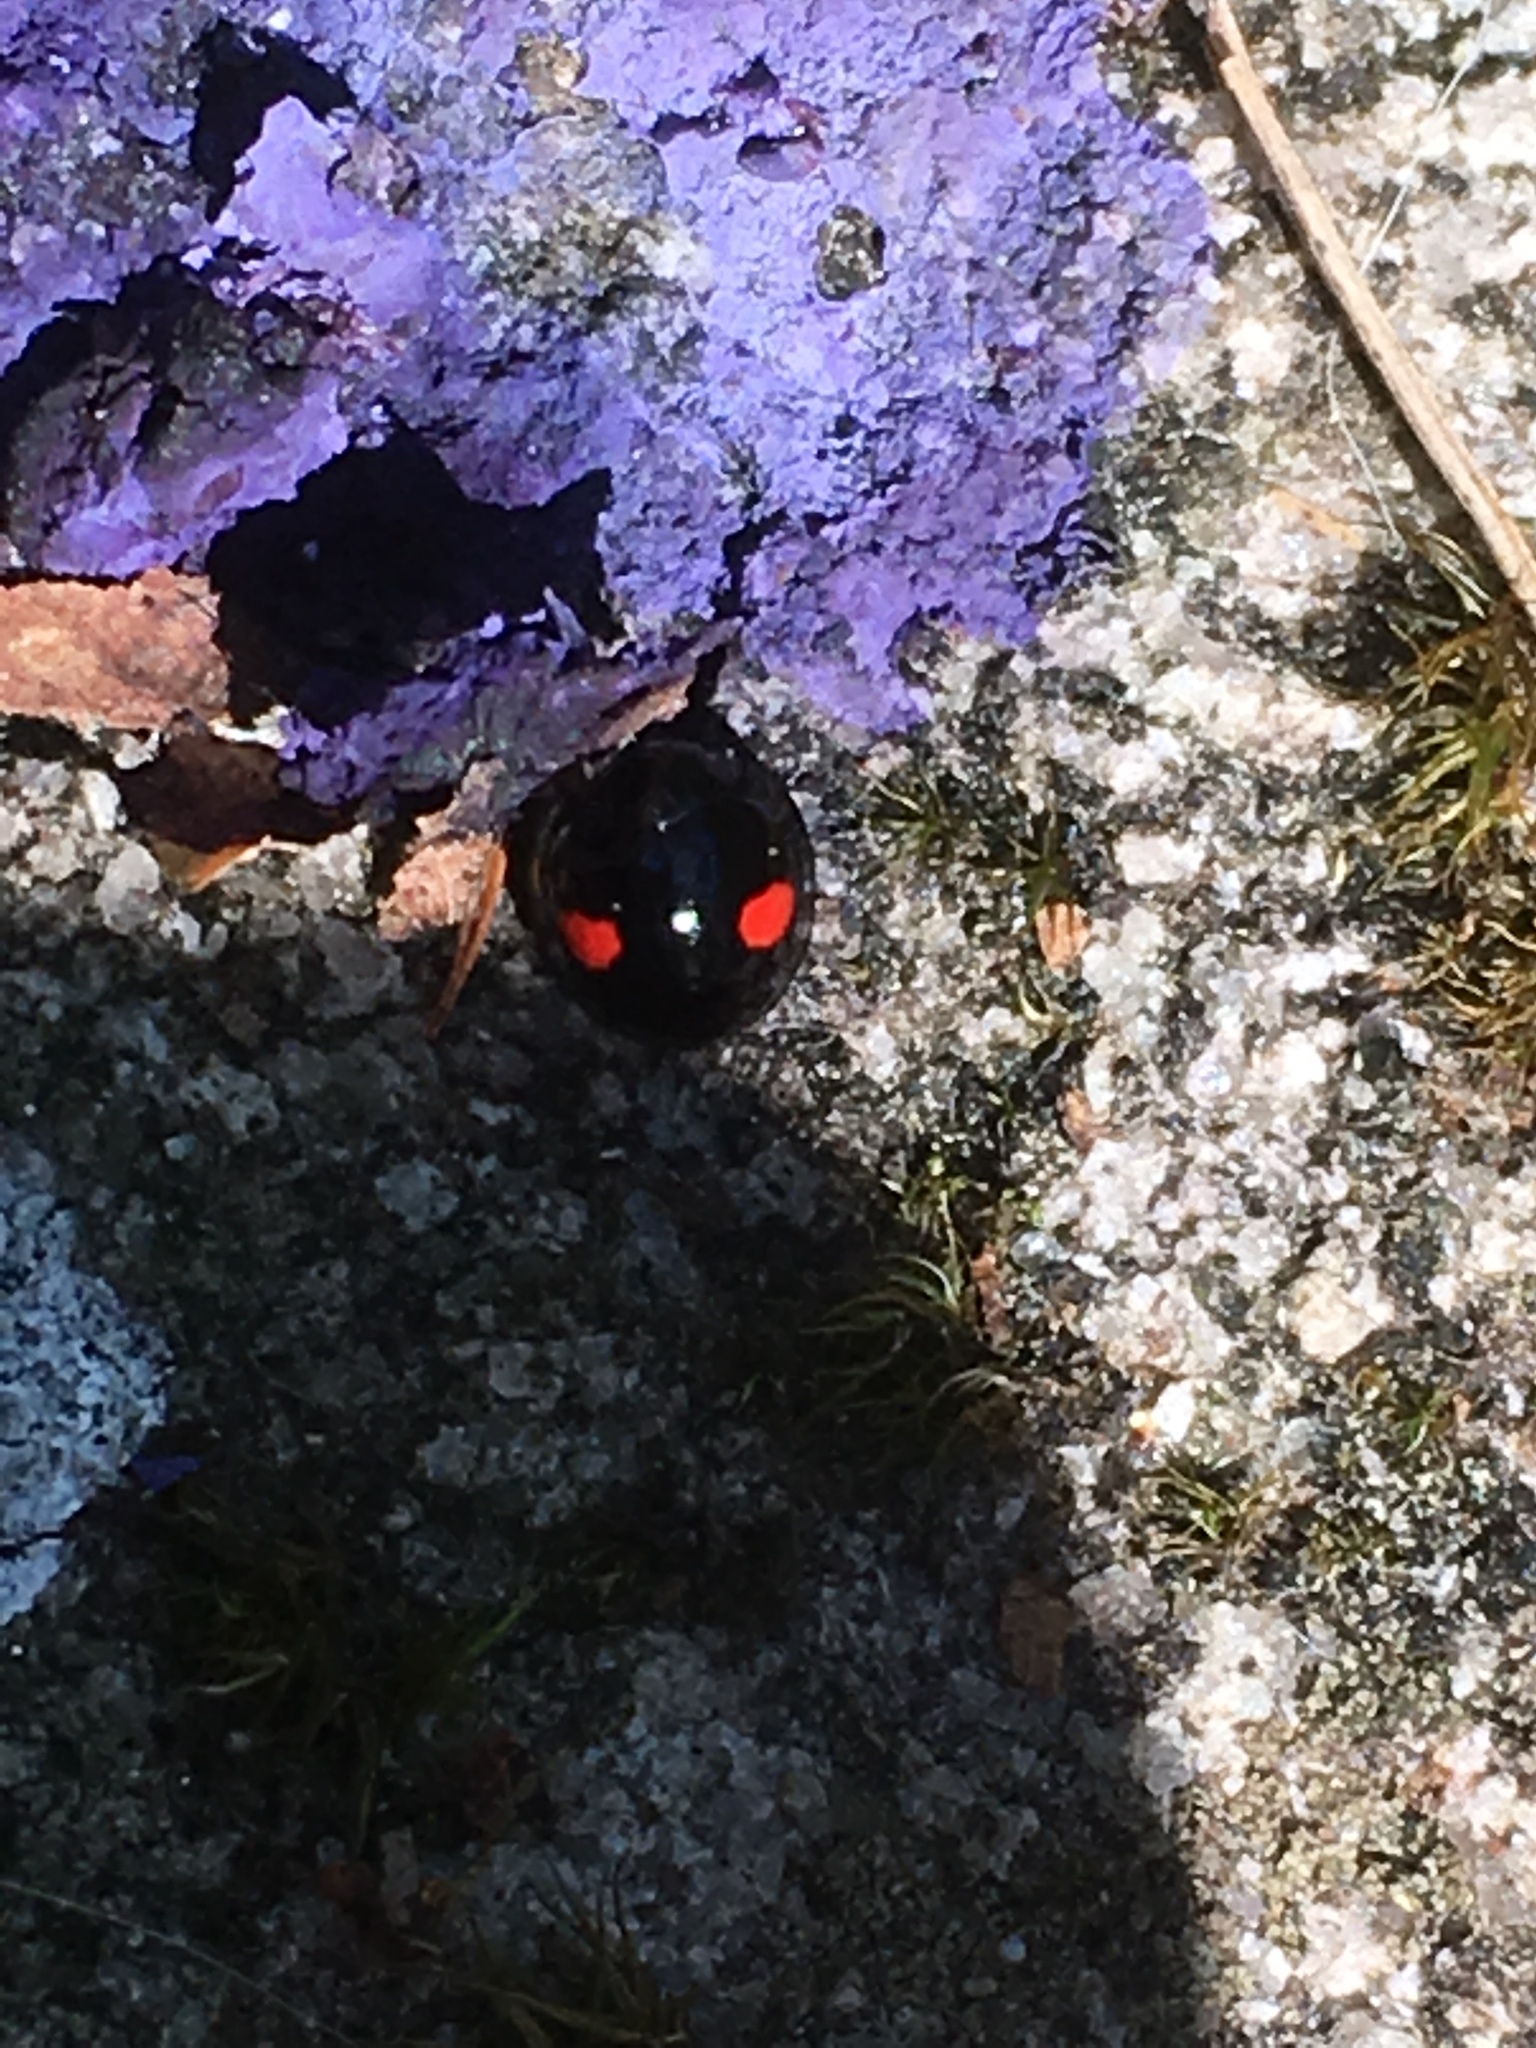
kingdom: Animalia
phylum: Arthropoda
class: Insecta
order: Coleoptera
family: Coccinellidae
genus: Chilocorus
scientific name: Chilocorus renipustulatus
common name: Kidney-spot ladybird
